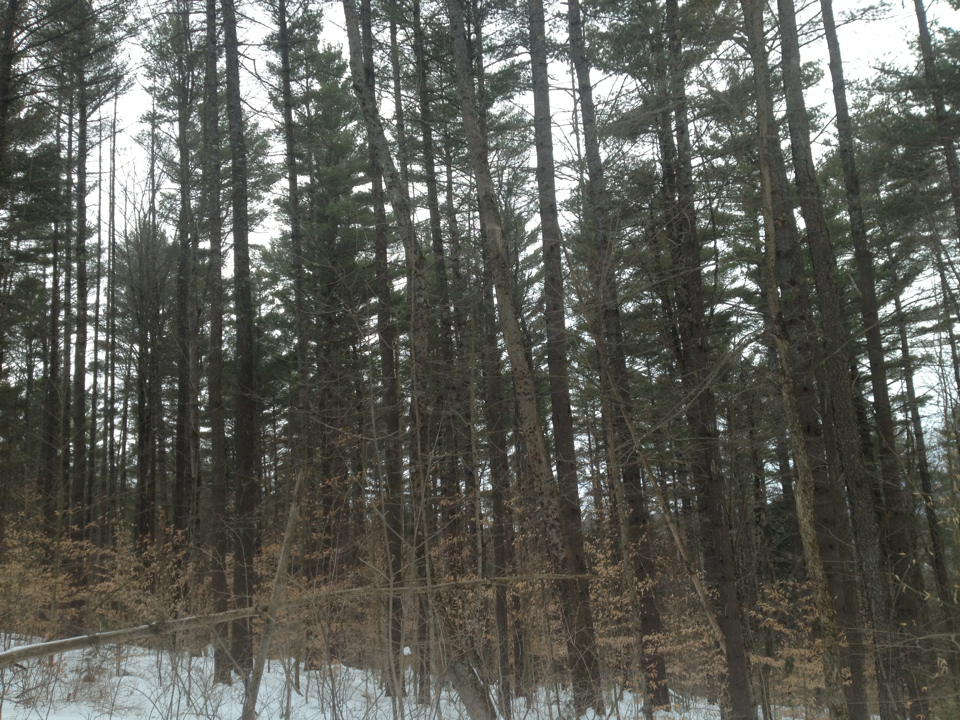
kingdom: Plantae
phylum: Tracheophyta
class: Pinopsida
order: Pinales
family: Pinaceae
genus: Pinus
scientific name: Pinus strobus
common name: Weymouth pine
